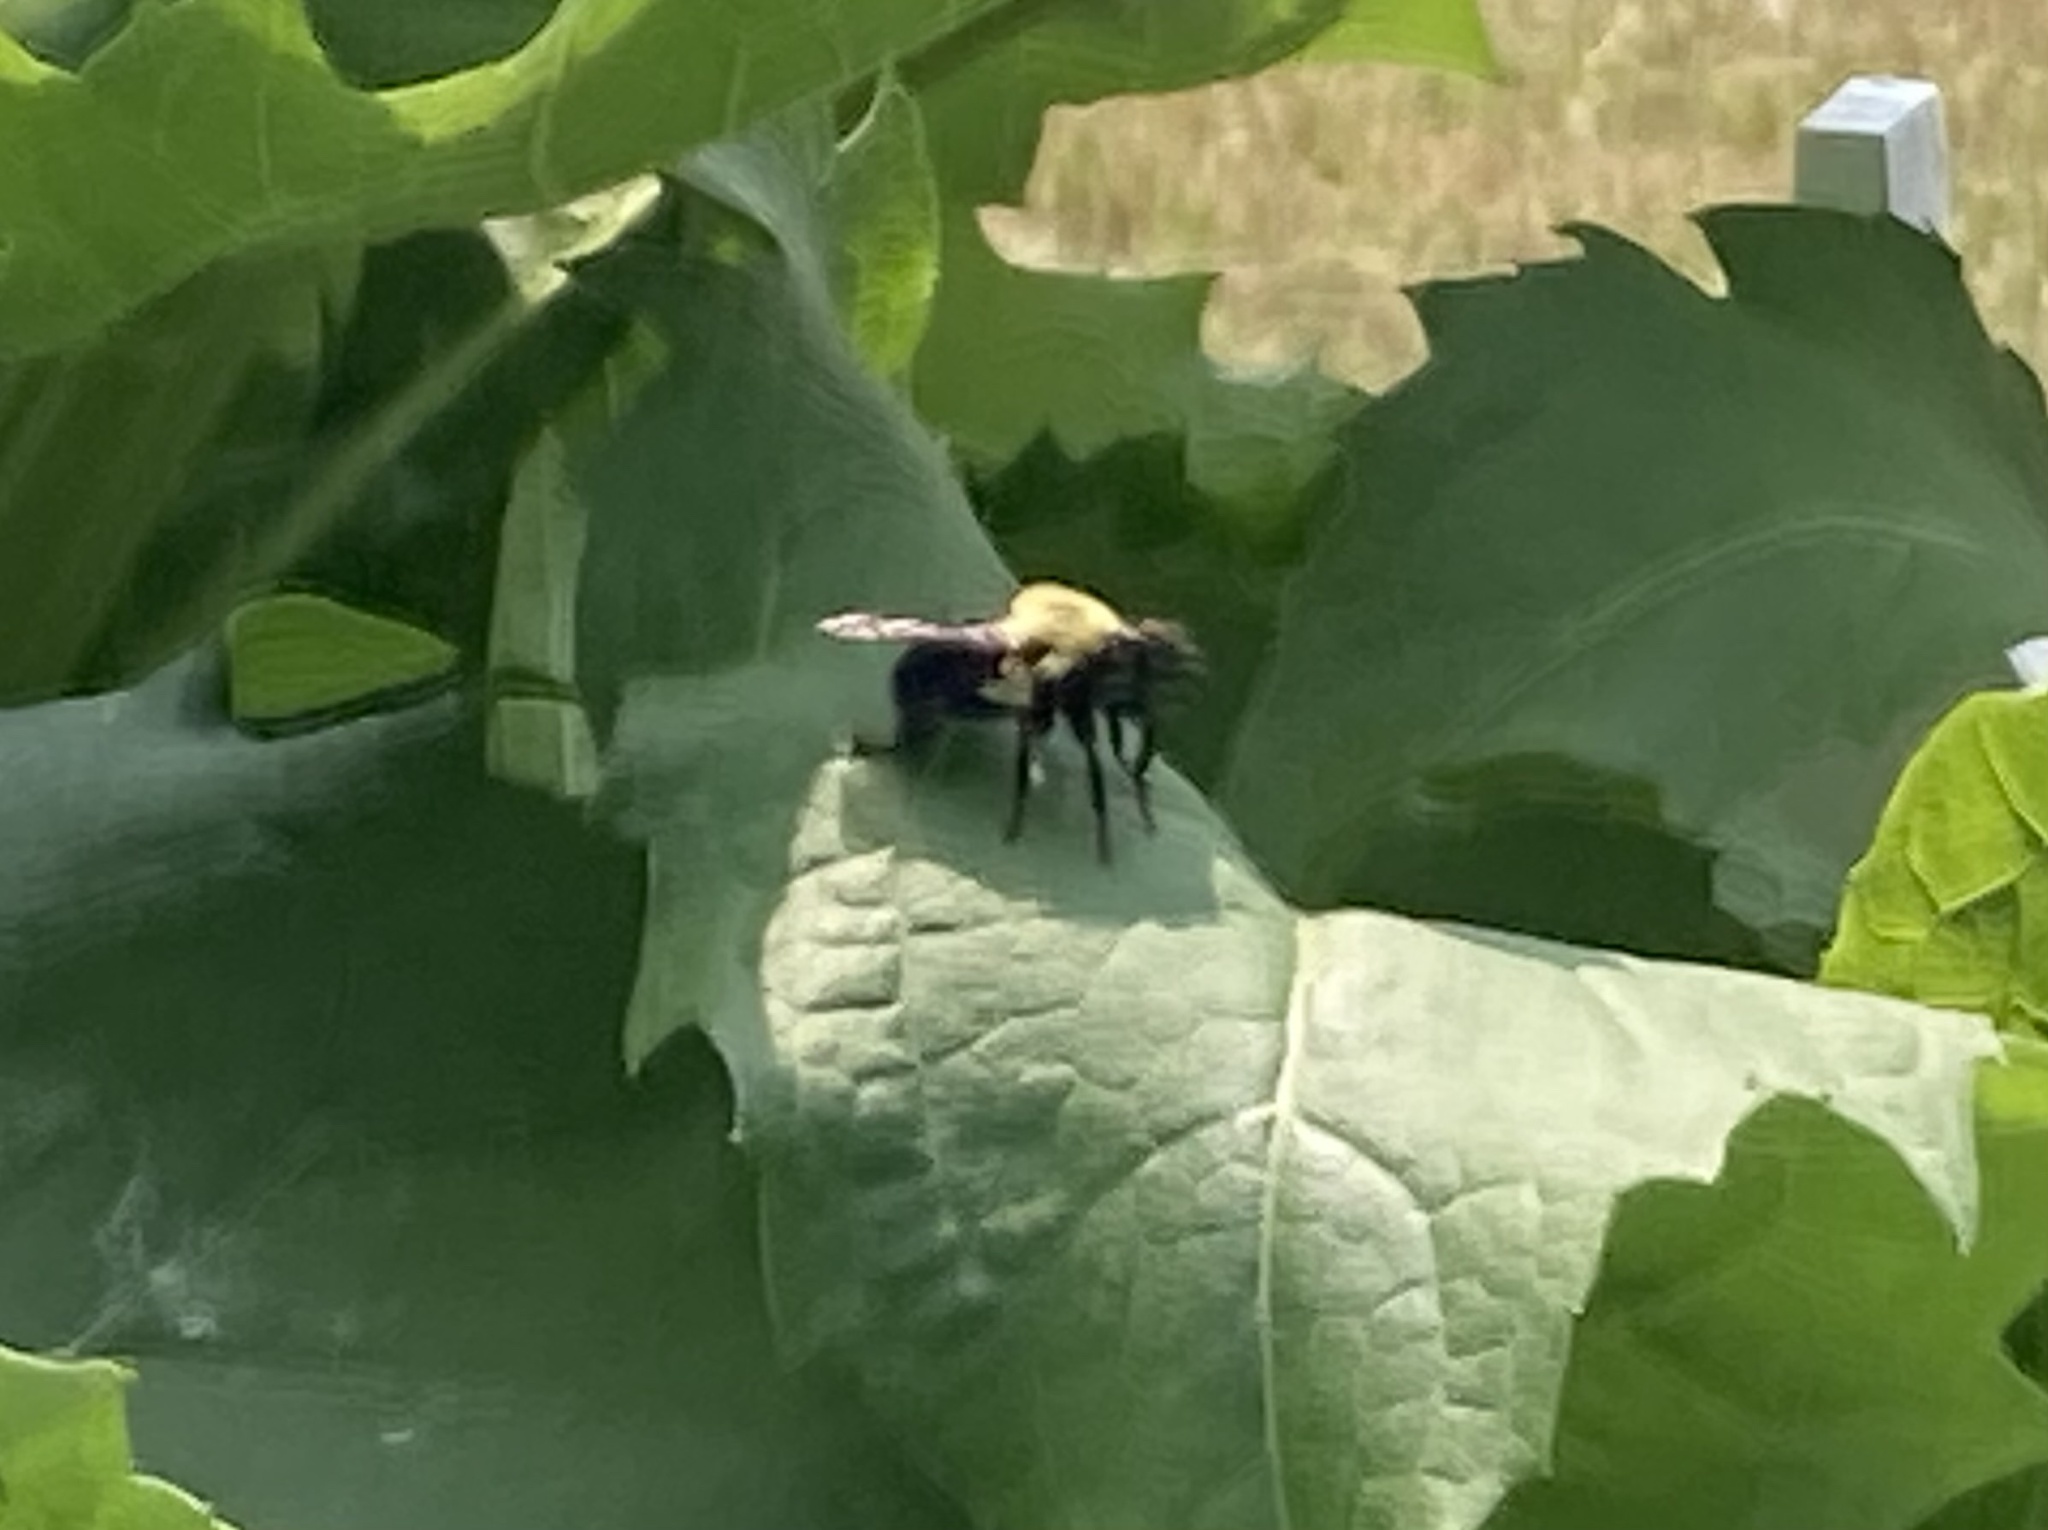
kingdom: Animalia
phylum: Arthropoda
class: Insecta
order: Diptera
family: Asilidae
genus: Laphria
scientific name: Laphria thoracica
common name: Bumble bee mimic robber fly
